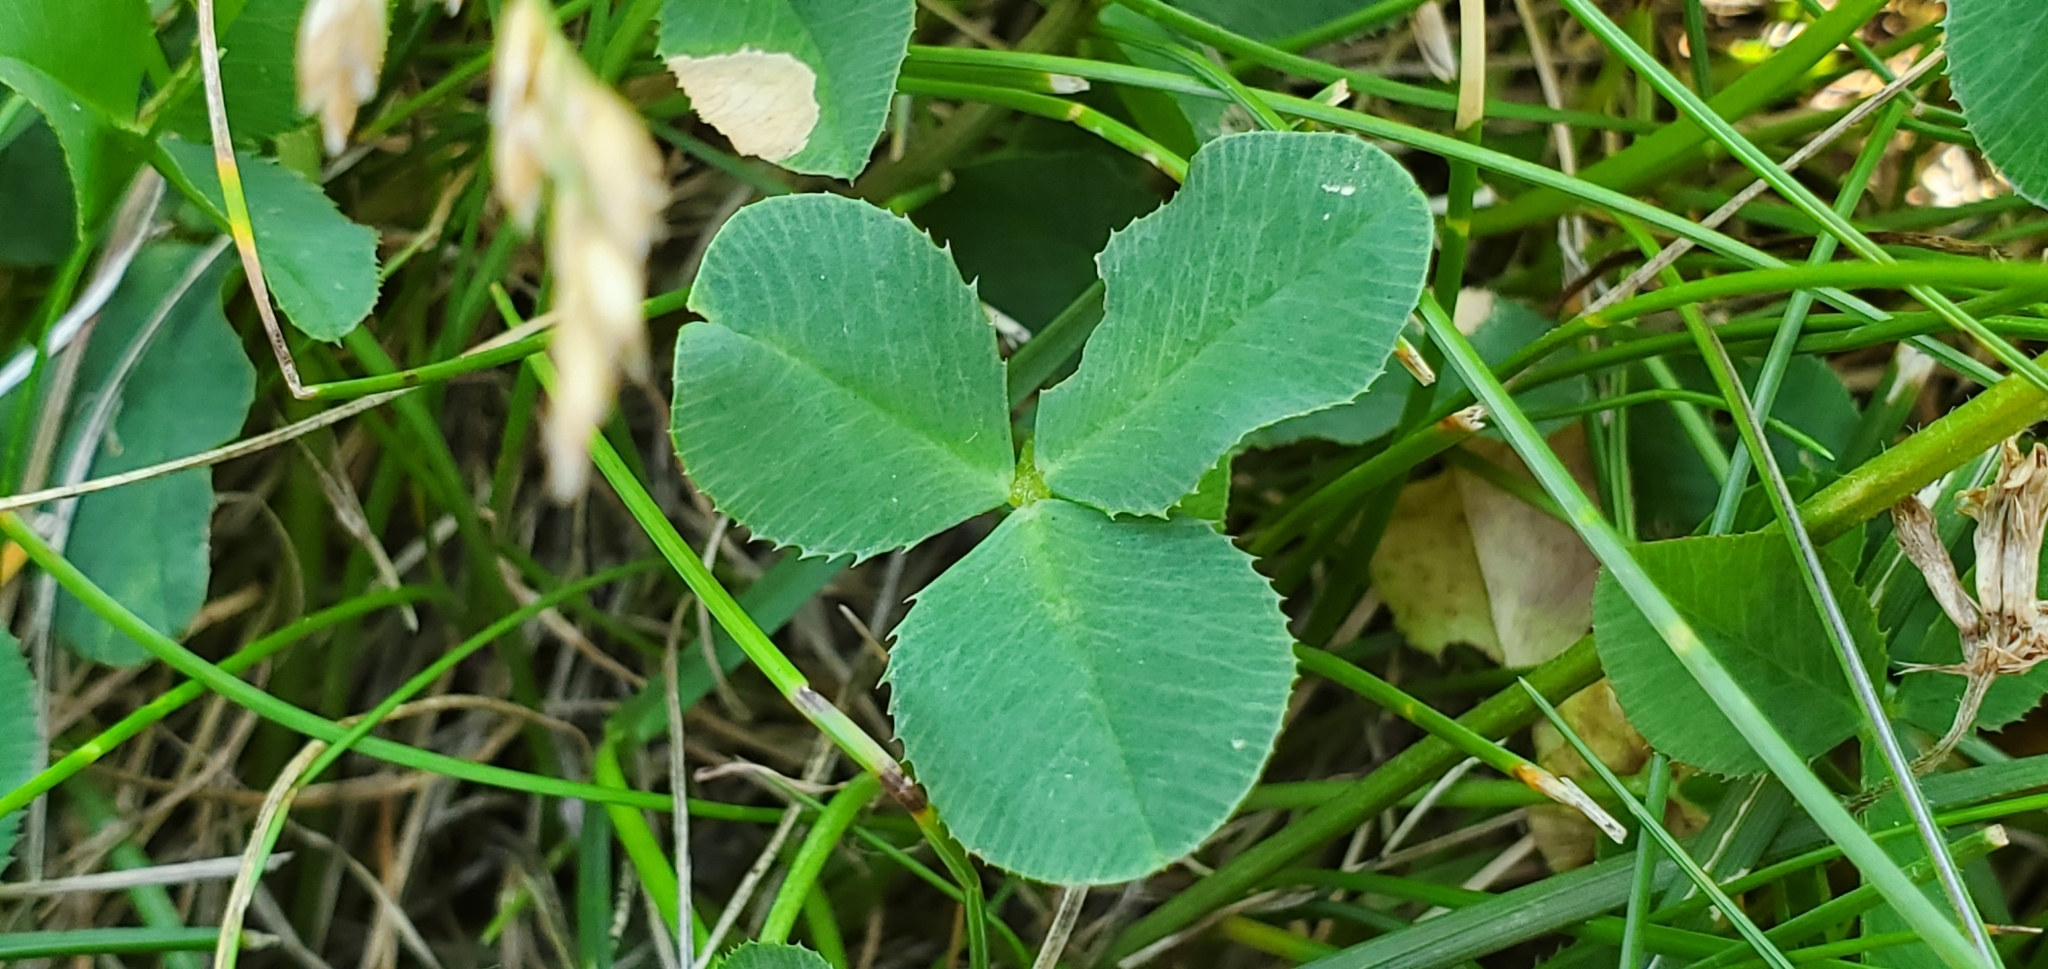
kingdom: Plantae
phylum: Tracheophyta
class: Magnoliopsida
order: Fabales
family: Fabaceae
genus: Trifolium
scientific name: Trifolium repens
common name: White clover
